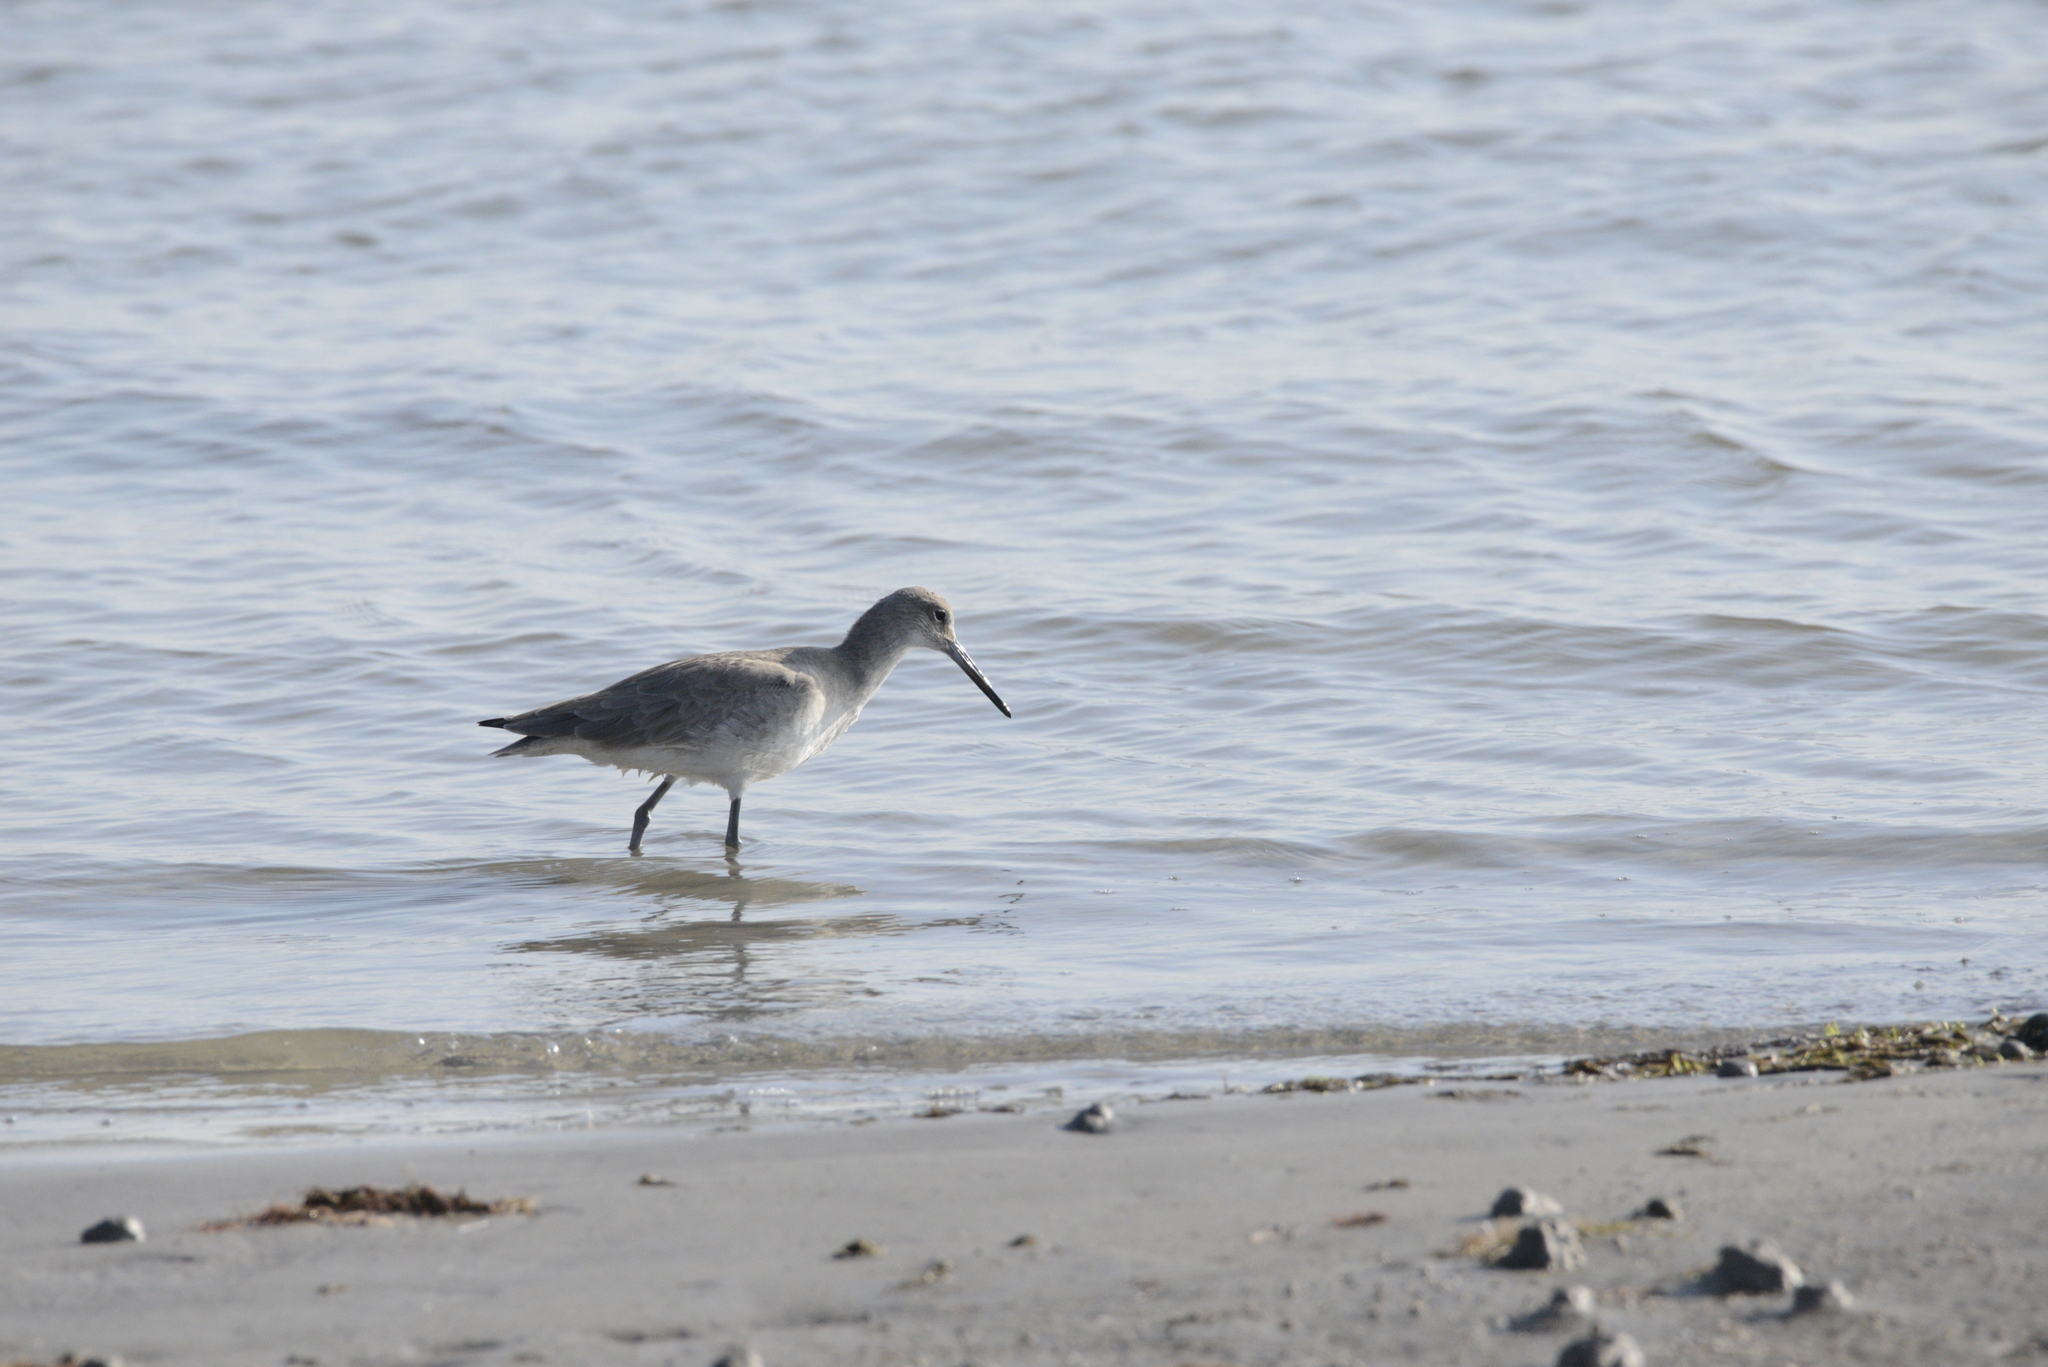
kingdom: Animalia
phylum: Chordata
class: Aves
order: Charadriiformes
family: Scolopacidae
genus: Tringa
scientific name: Tringa semipalmata
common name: Willet
